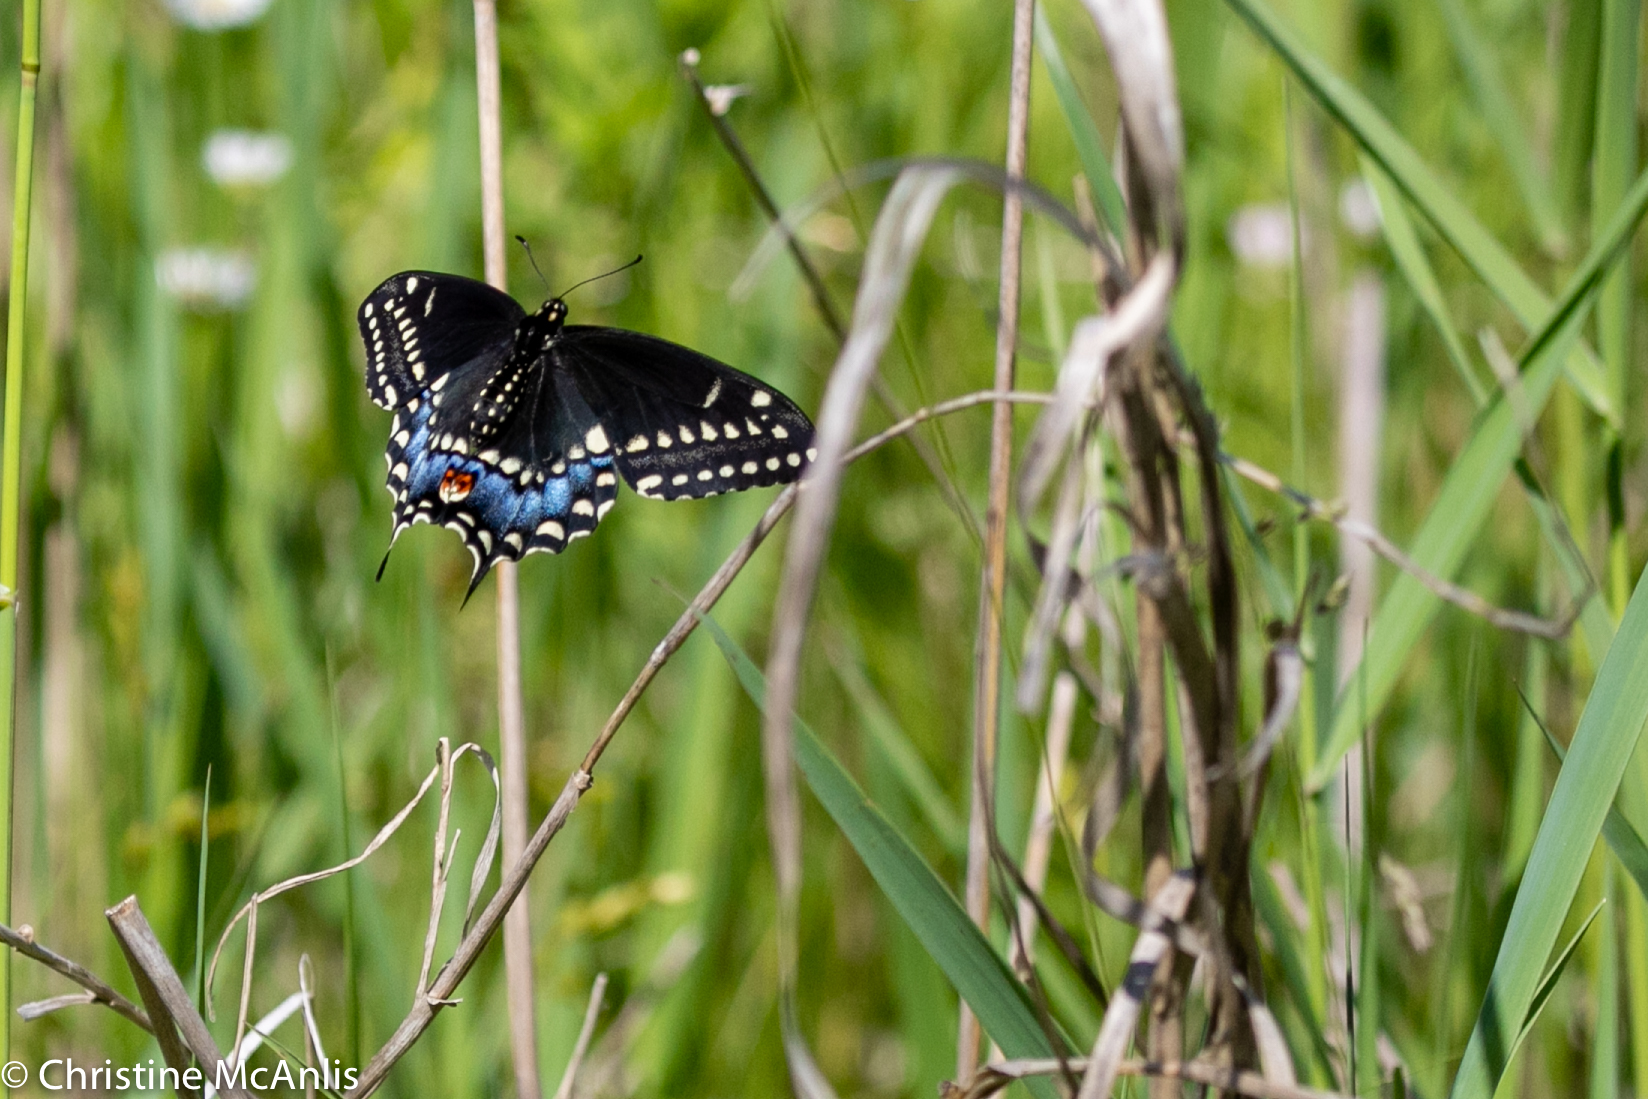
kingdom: Animalia
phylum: Arthropoda
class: Insecta
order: Lepidoptera
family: Papilionidae
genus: Papilio
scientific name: Papilio polyxenes
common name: Black swallowtail
